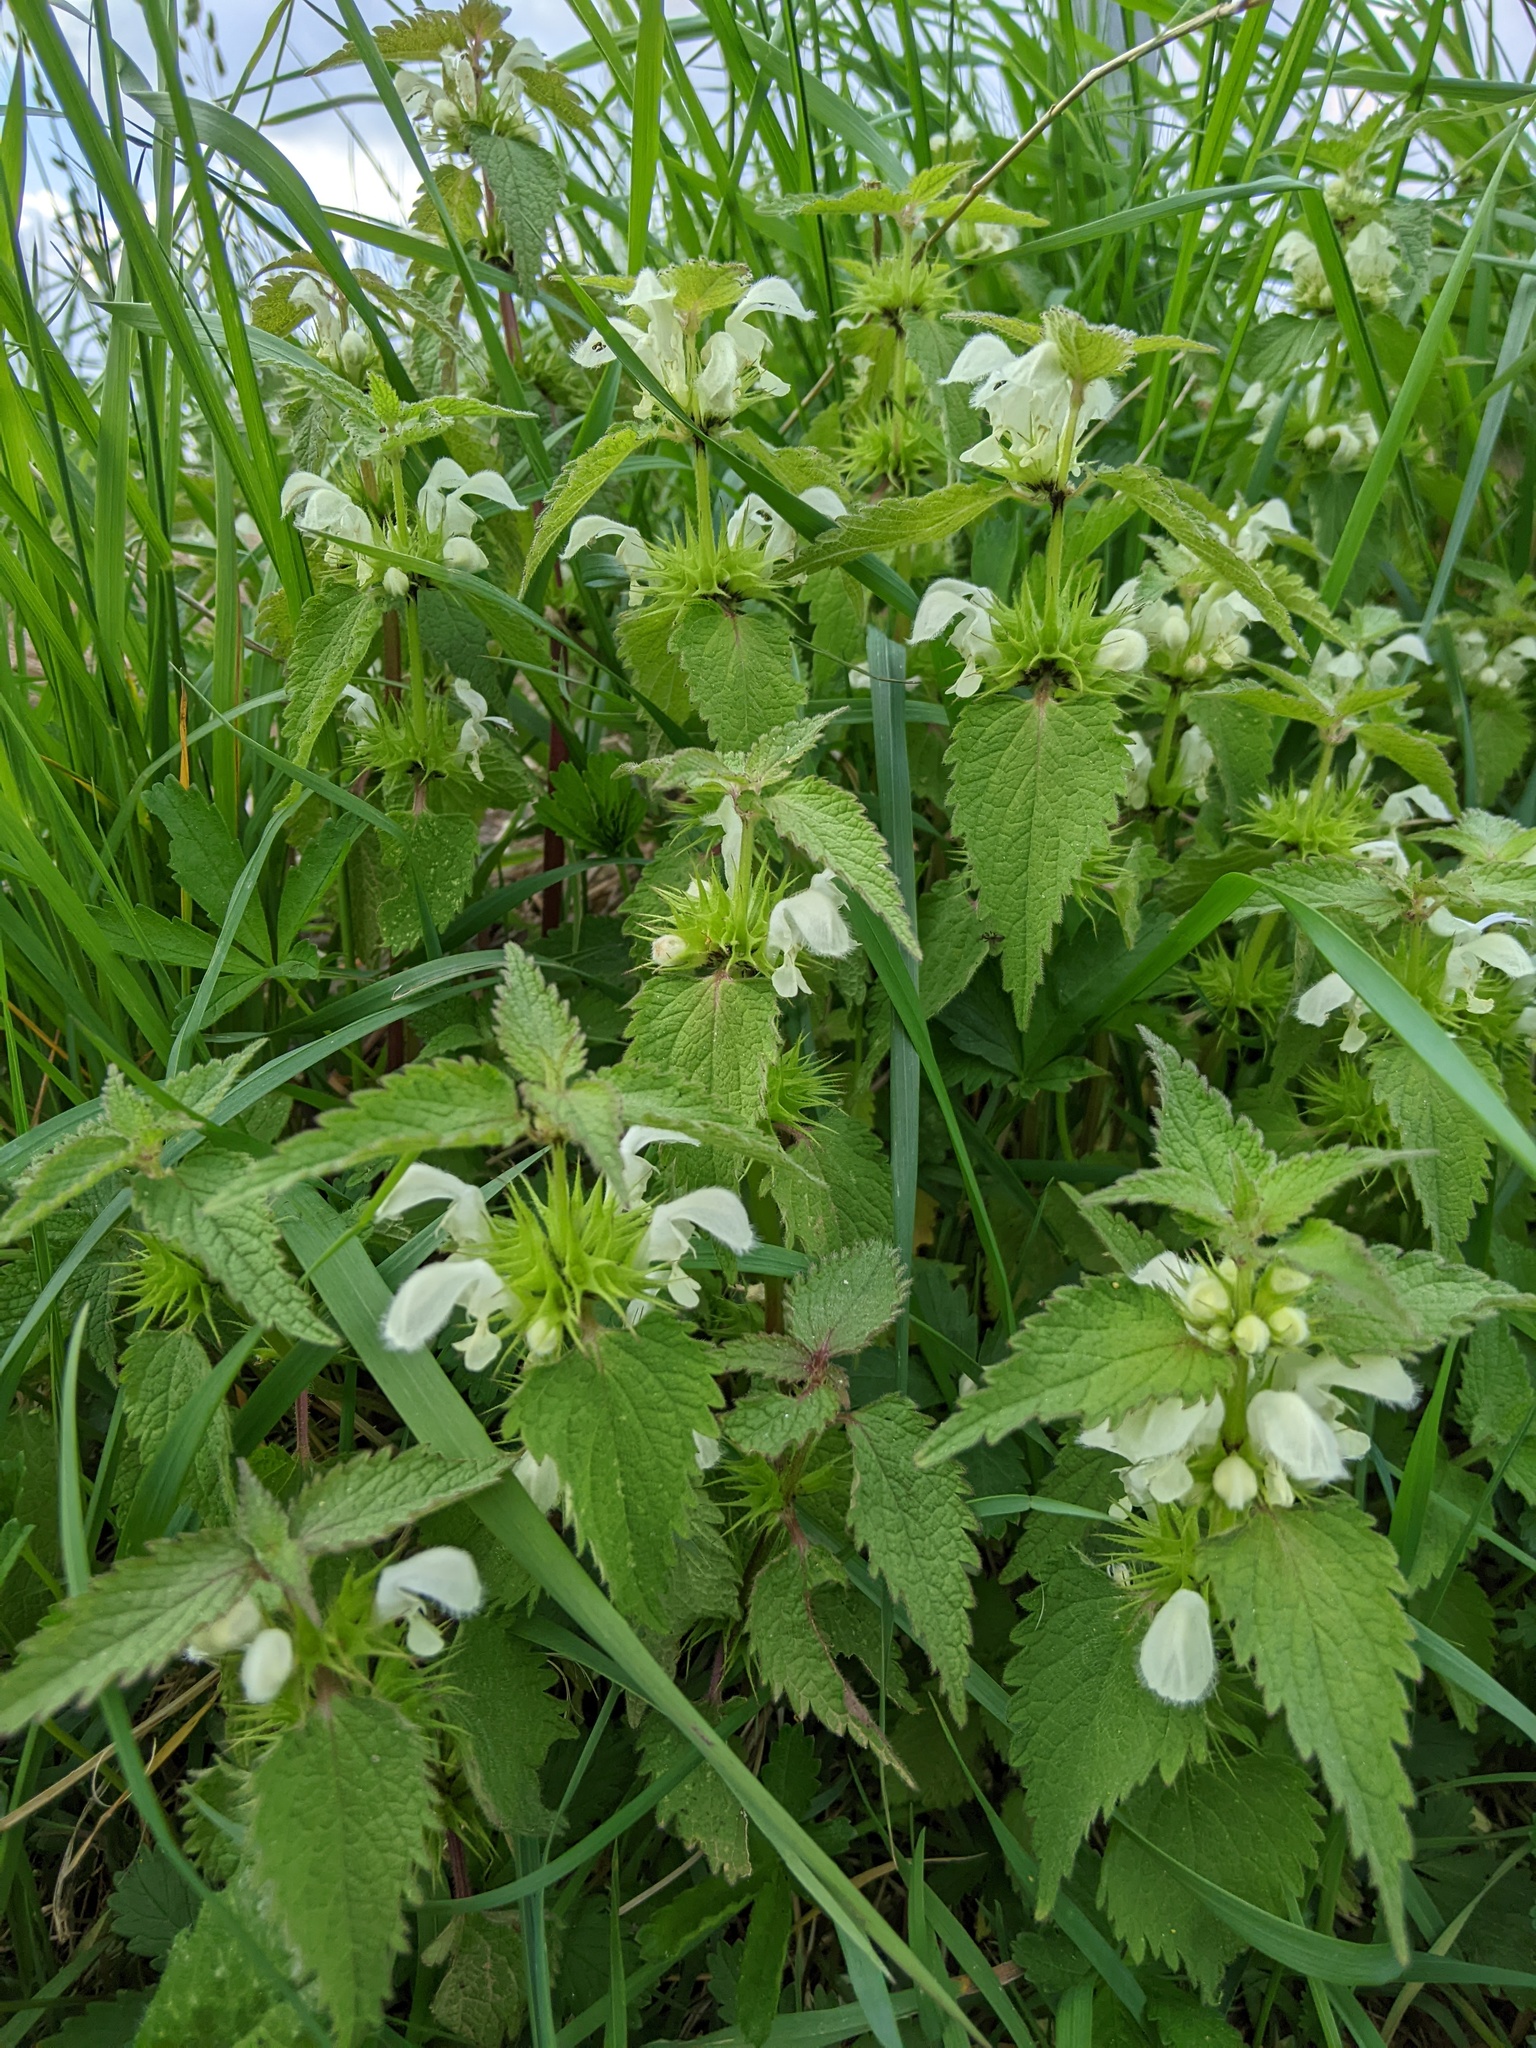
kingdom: Plantae
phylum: Tracheophyta
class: Magnoliopsida
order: Lamiales
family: Lamiaceae
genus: Lamium
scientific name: Lamium album
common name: White dead-nettle
